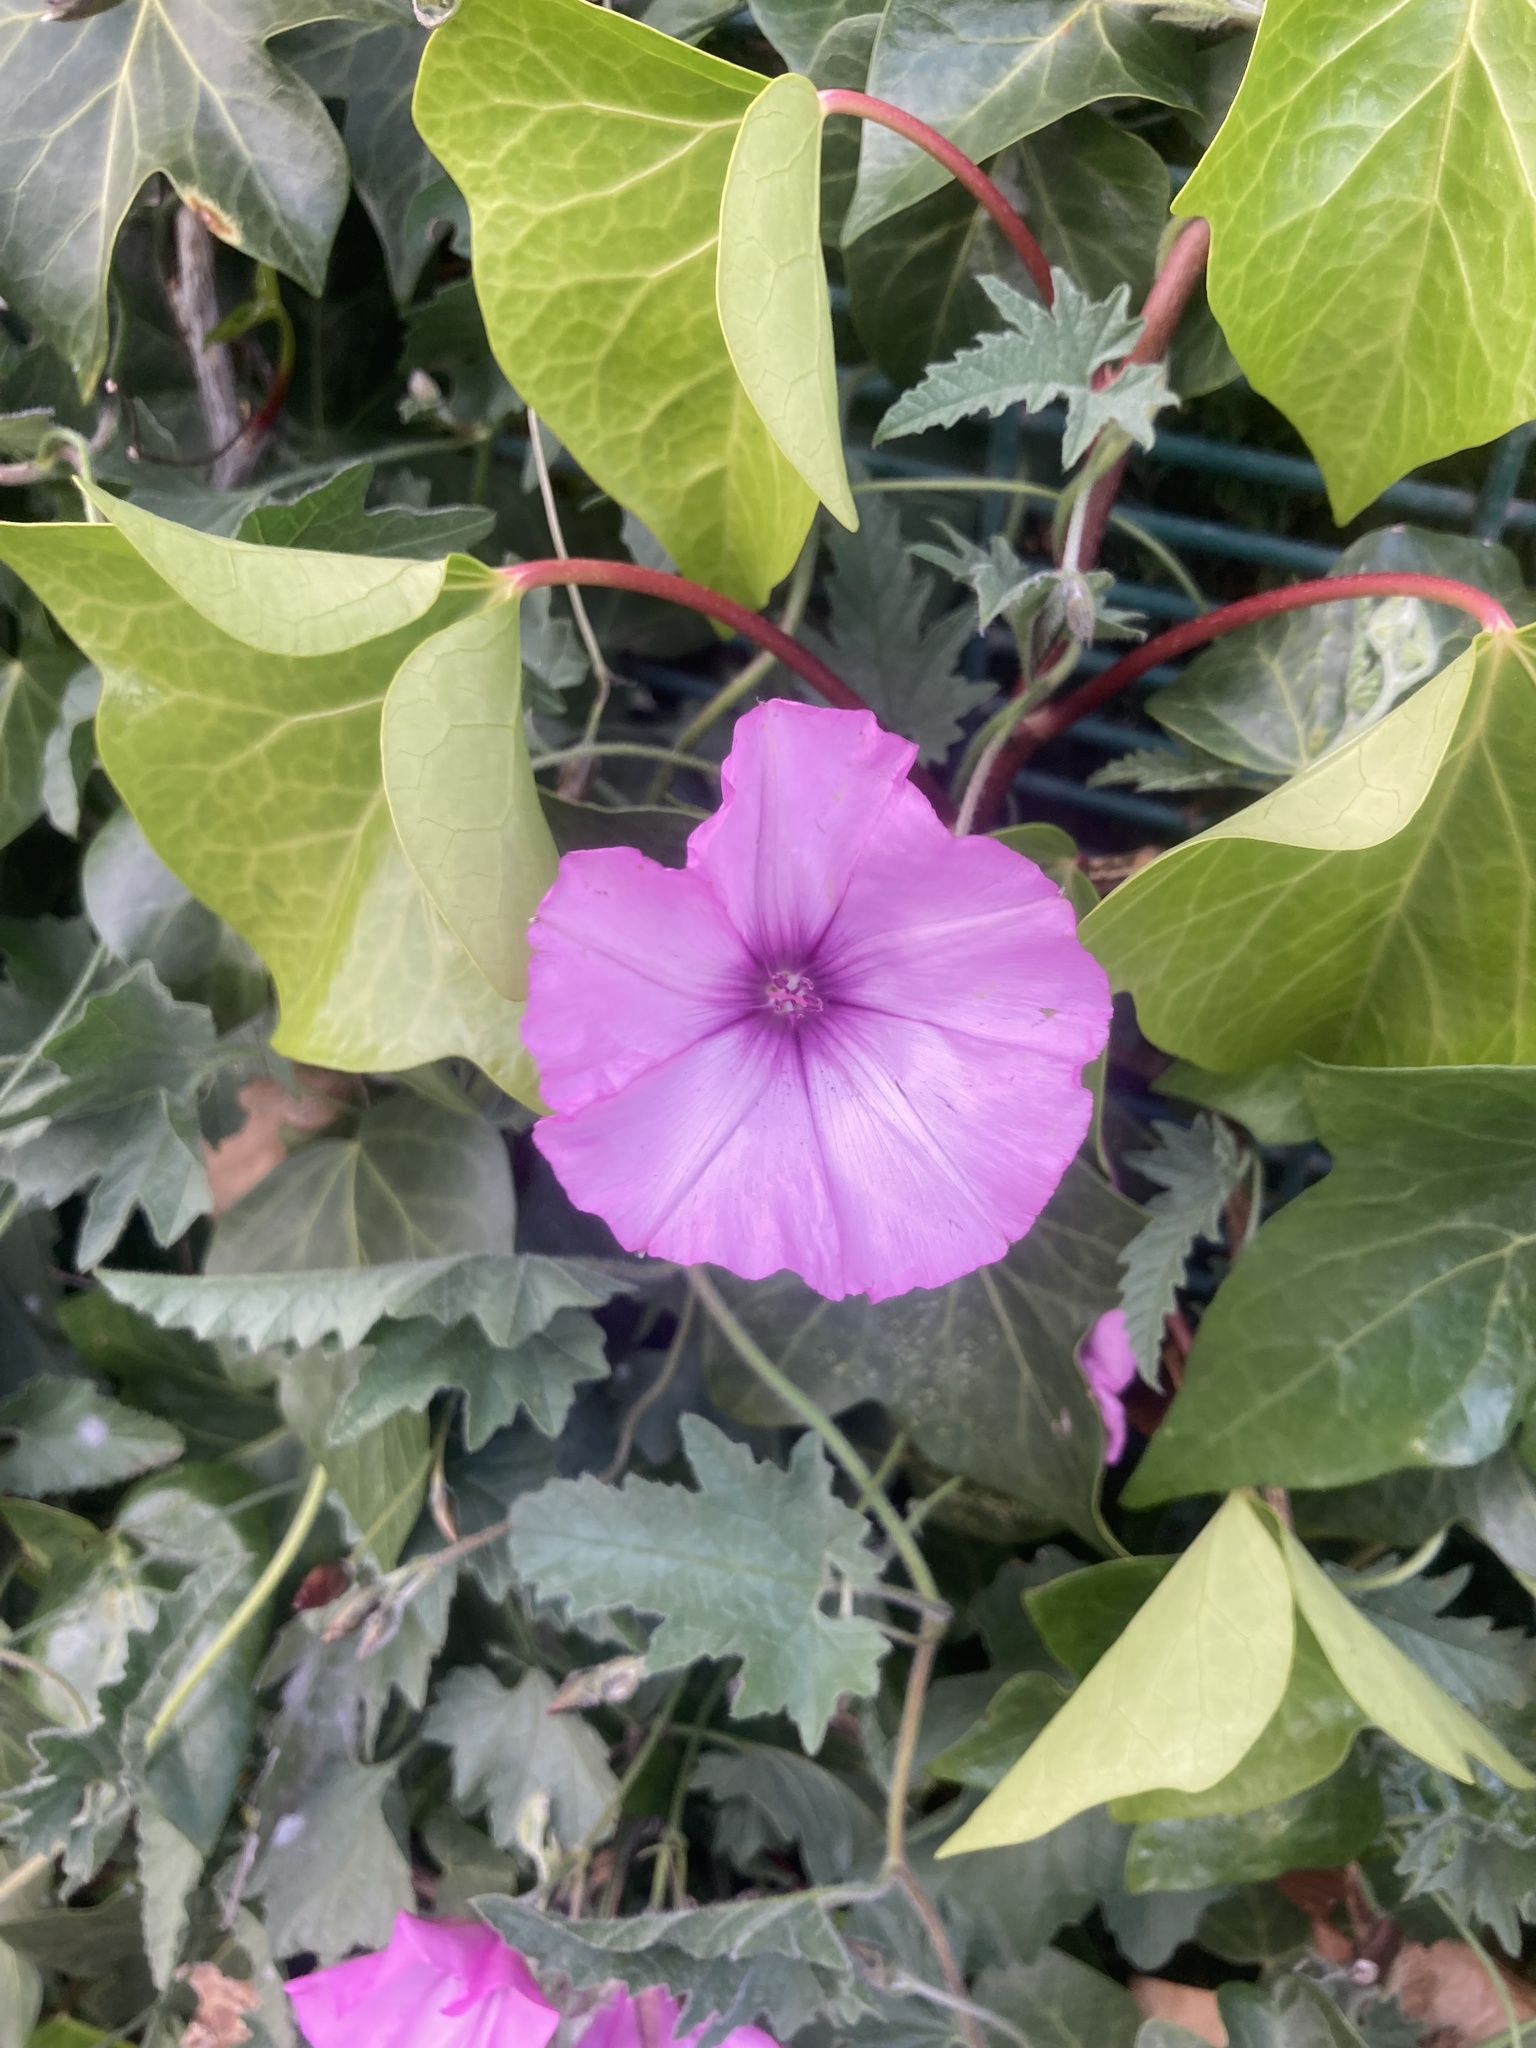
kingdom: Plantae
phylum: Tracheophyta
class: Magnoliopsida
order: Solanales
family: Convolvulaceae
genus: Convolvulus
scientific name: Convolvulus althaeoides
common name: Mallow bindweed
